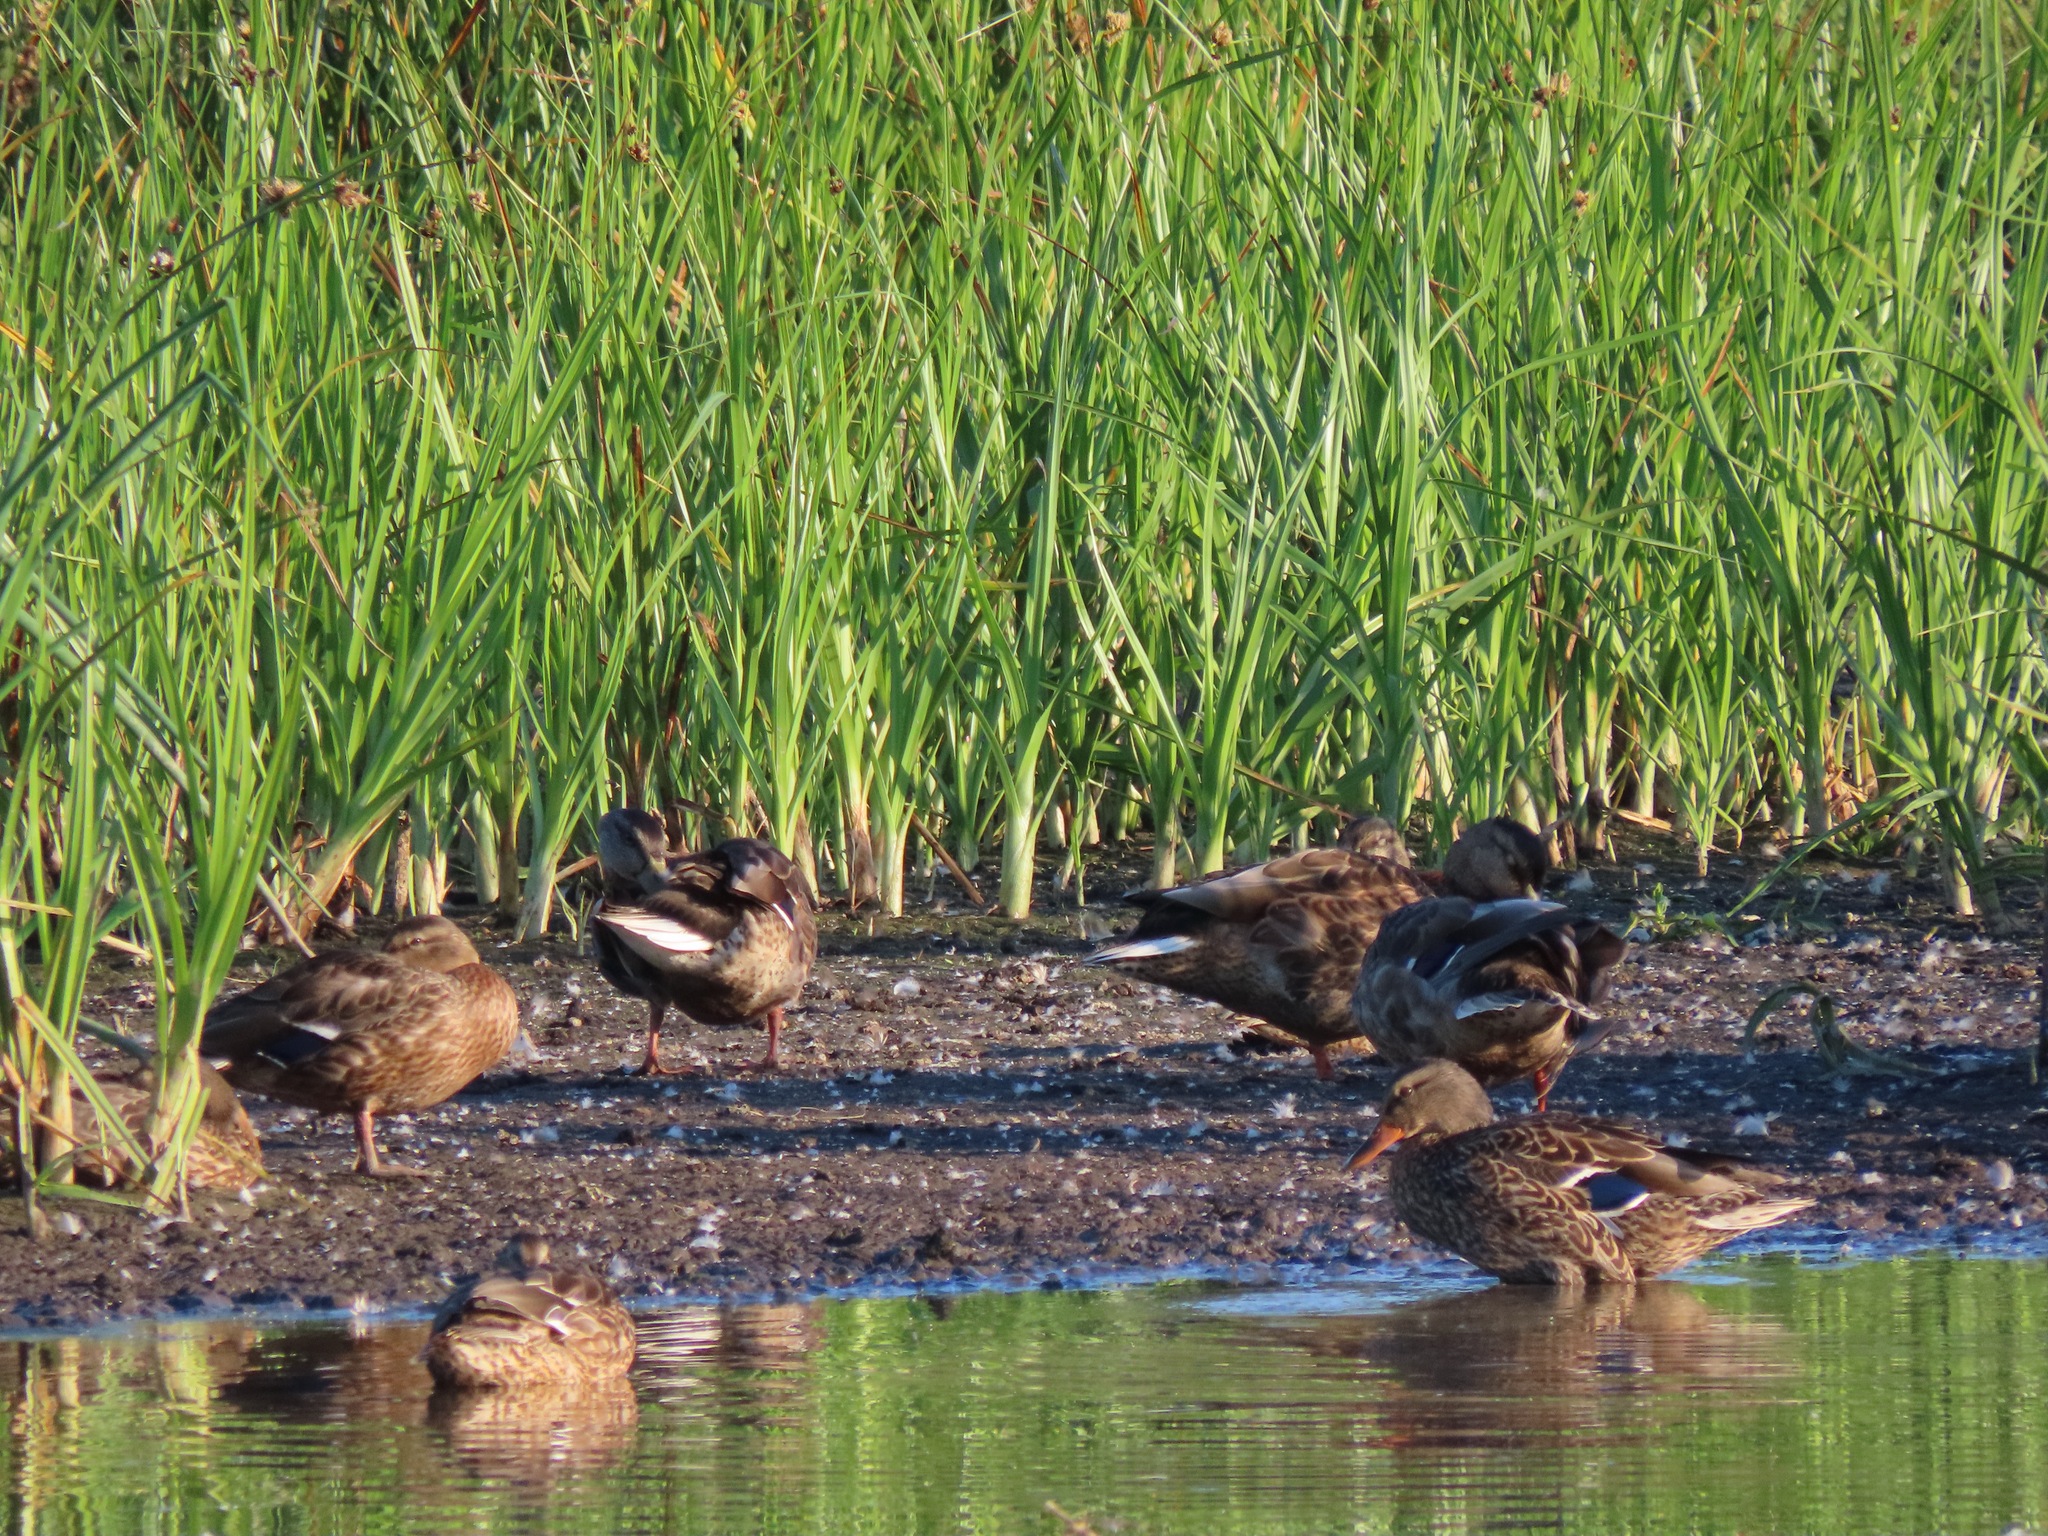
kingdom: Animalia
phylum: Chordata
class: Aves
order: Anseriformes
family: Anatidae
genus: Anas
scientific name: Anas platyrhynchos
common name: Mallard
